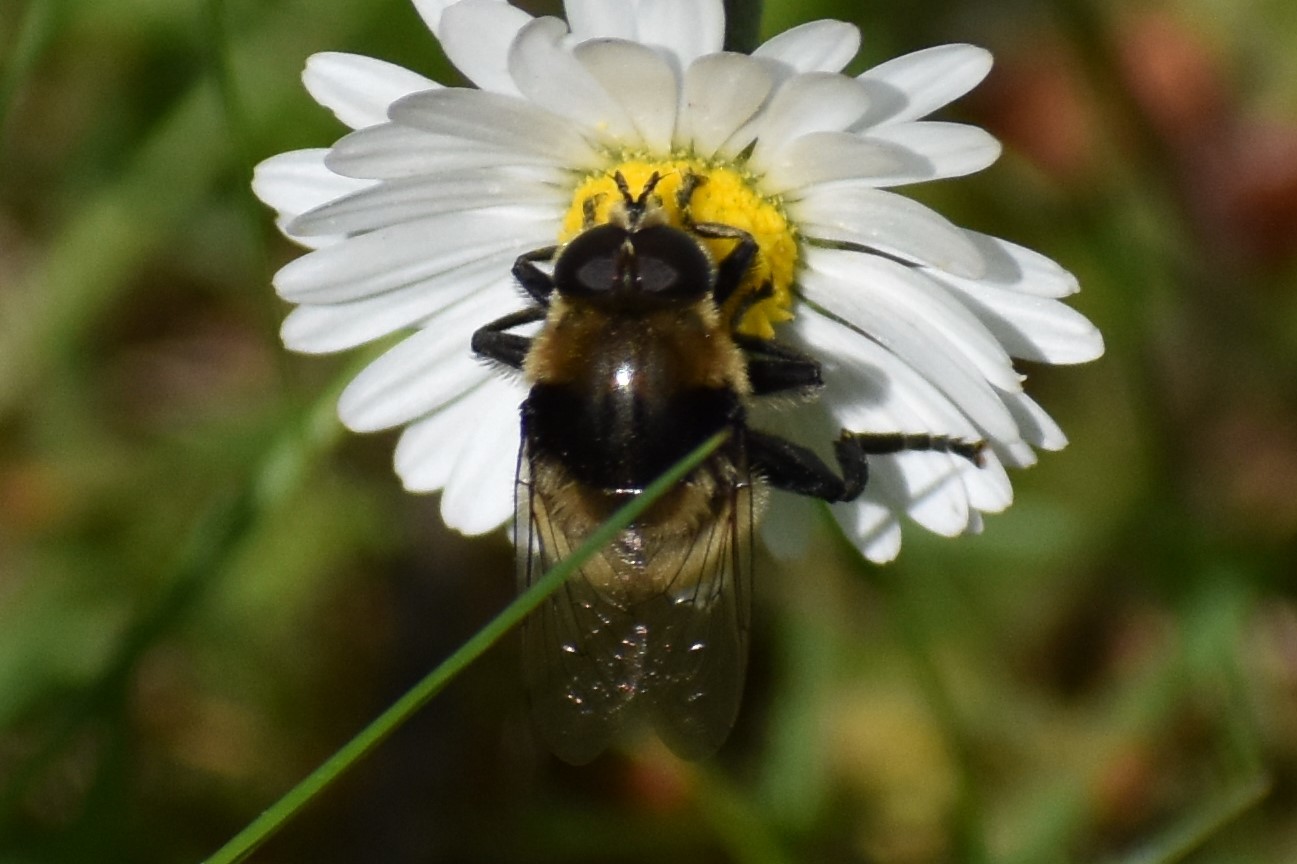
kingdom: Animalia
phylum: Arthropoda
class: Insecta
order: Diptera
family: Syrphidae
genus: Merodon
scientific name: Merodon equestris
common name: Greater bulb-fly
